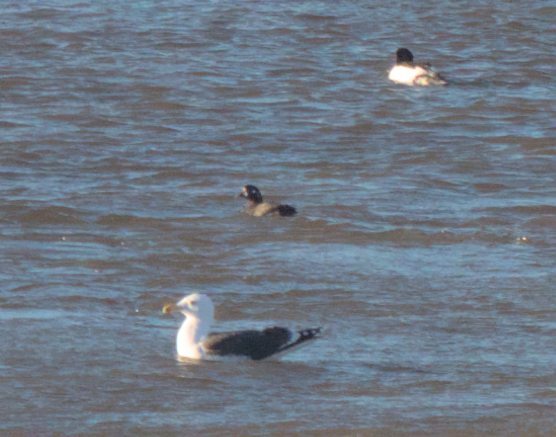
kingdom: Animalia
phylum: Chordata
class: Aves
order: Anseriformes
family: Anatidae
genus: Histrionicus
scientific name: Histrionicus histrionicus
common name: Harlequin duck
